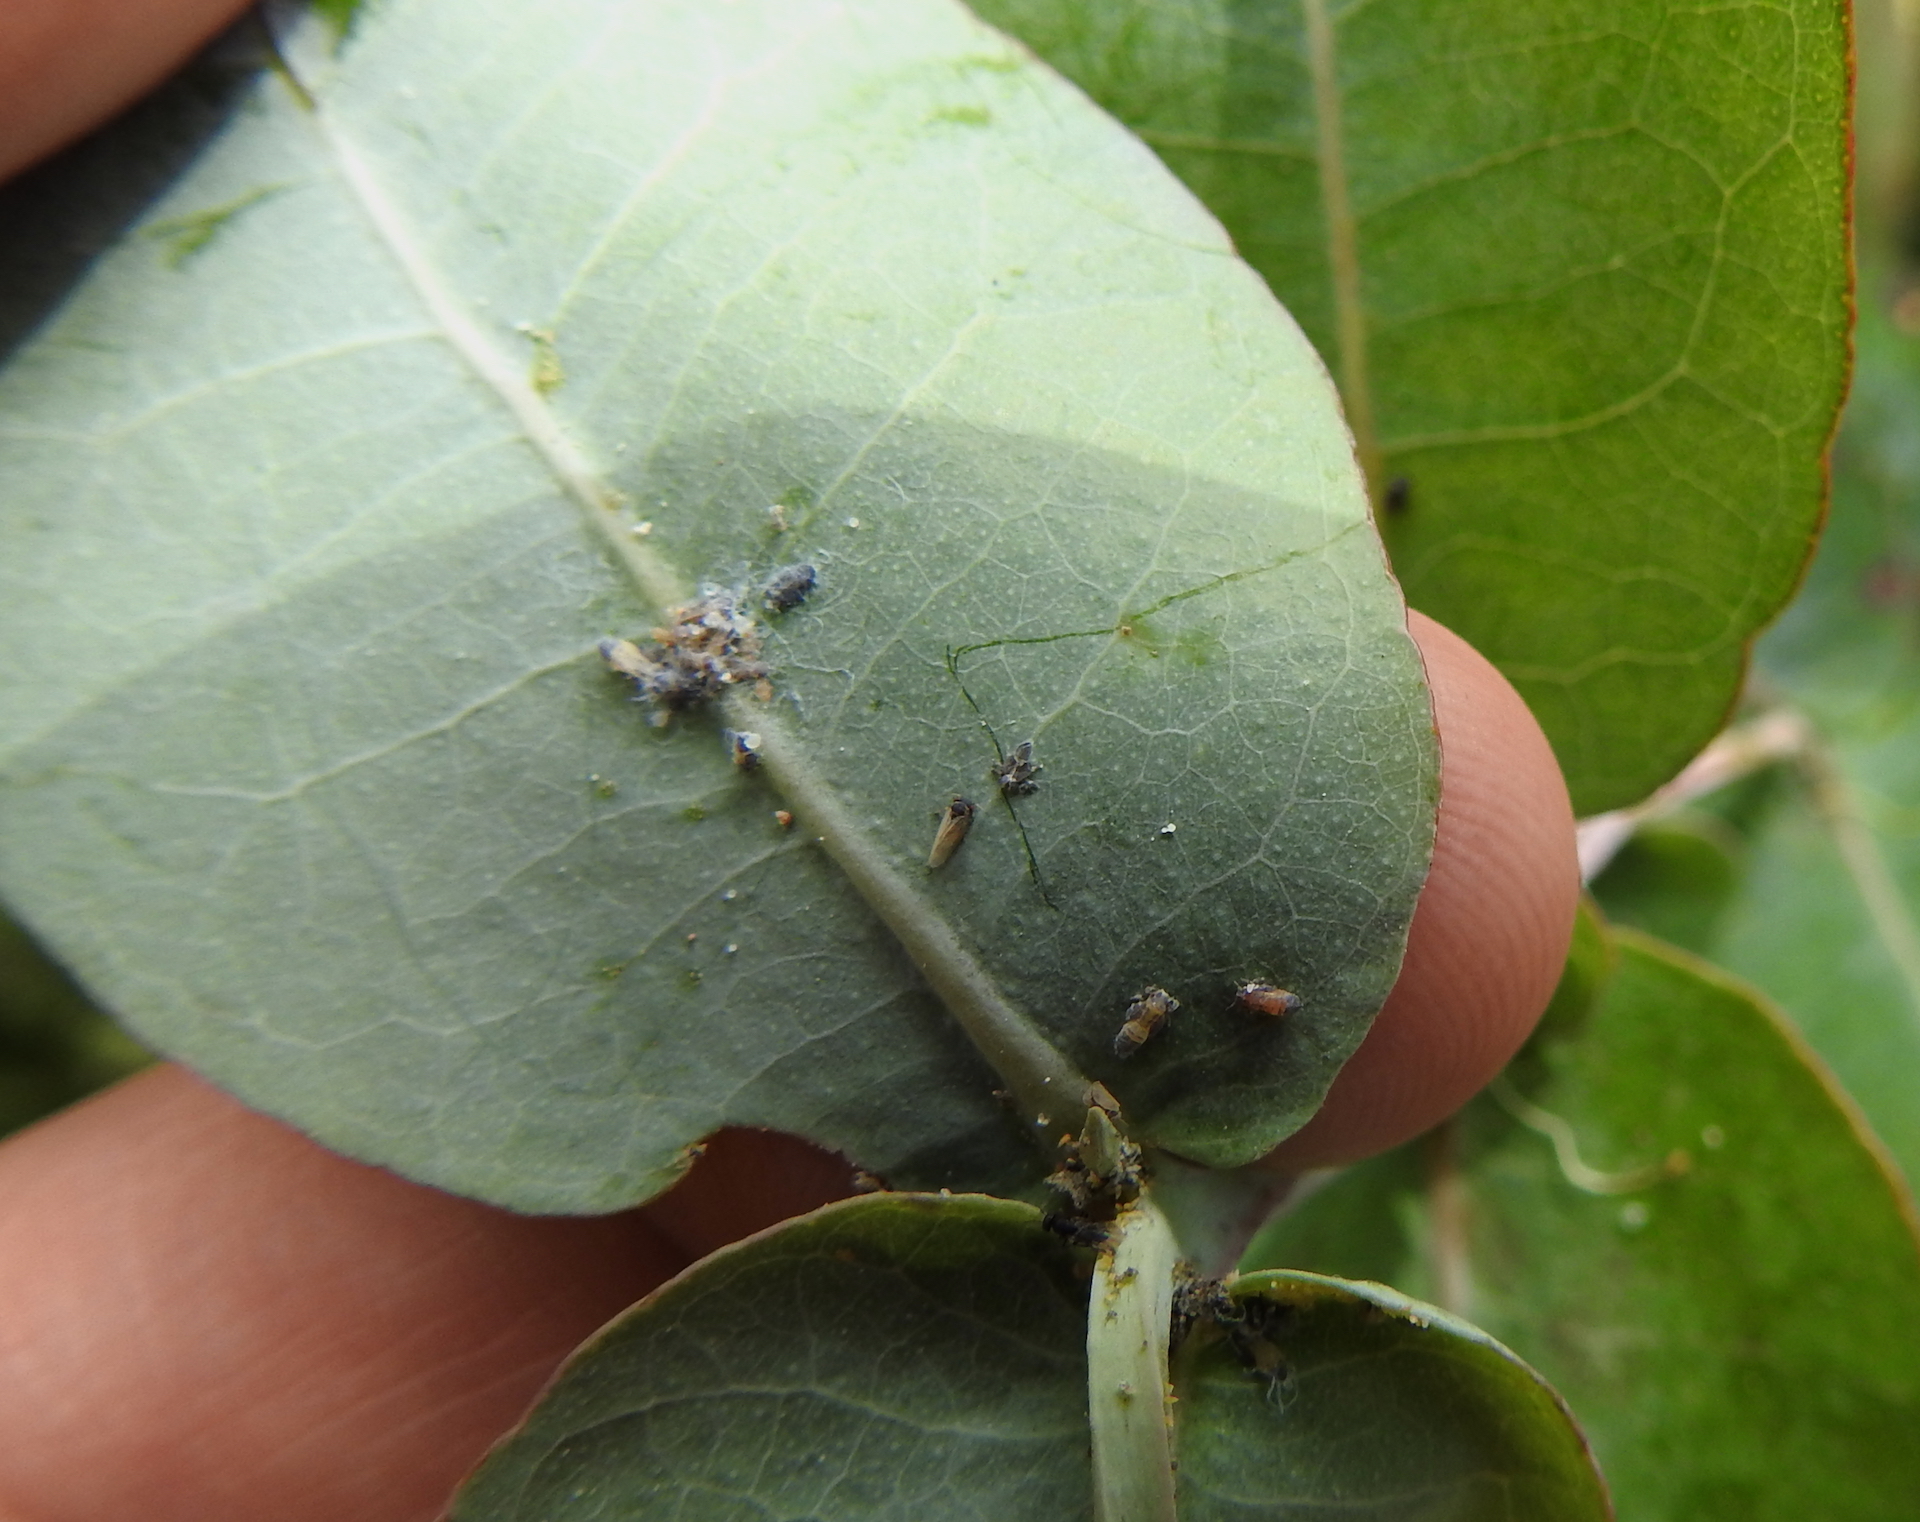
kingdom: Animalia
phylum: Arthropoda
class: Insecta
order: Hemiptera
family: Aphalaridae
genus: Ctenarytaina
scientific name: Ctenarytaina eucalypti
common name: Blue gum psyllid
